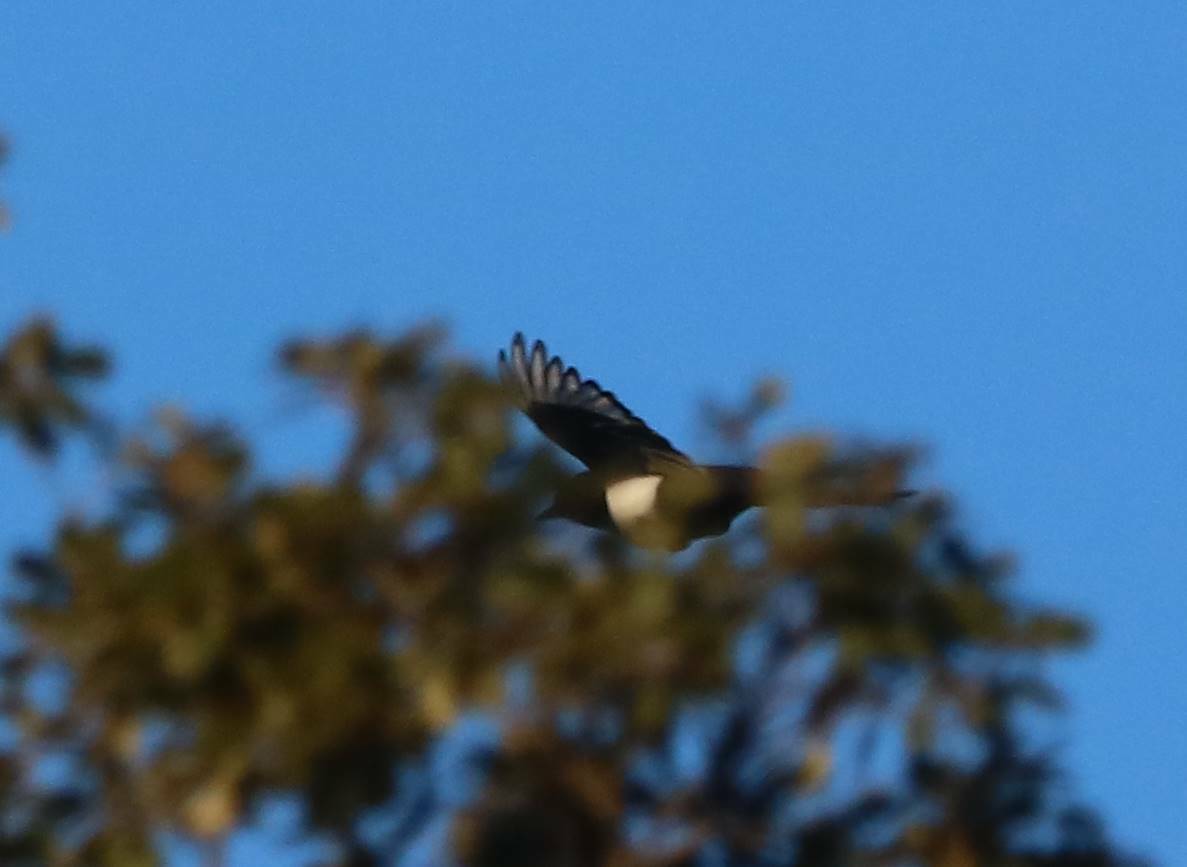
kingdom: Animalia
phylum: Chordata
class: Aves
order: Passeriformes
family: Corvidae
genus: Pica
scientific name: Pica mauritanica
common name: Maghreb magpie
